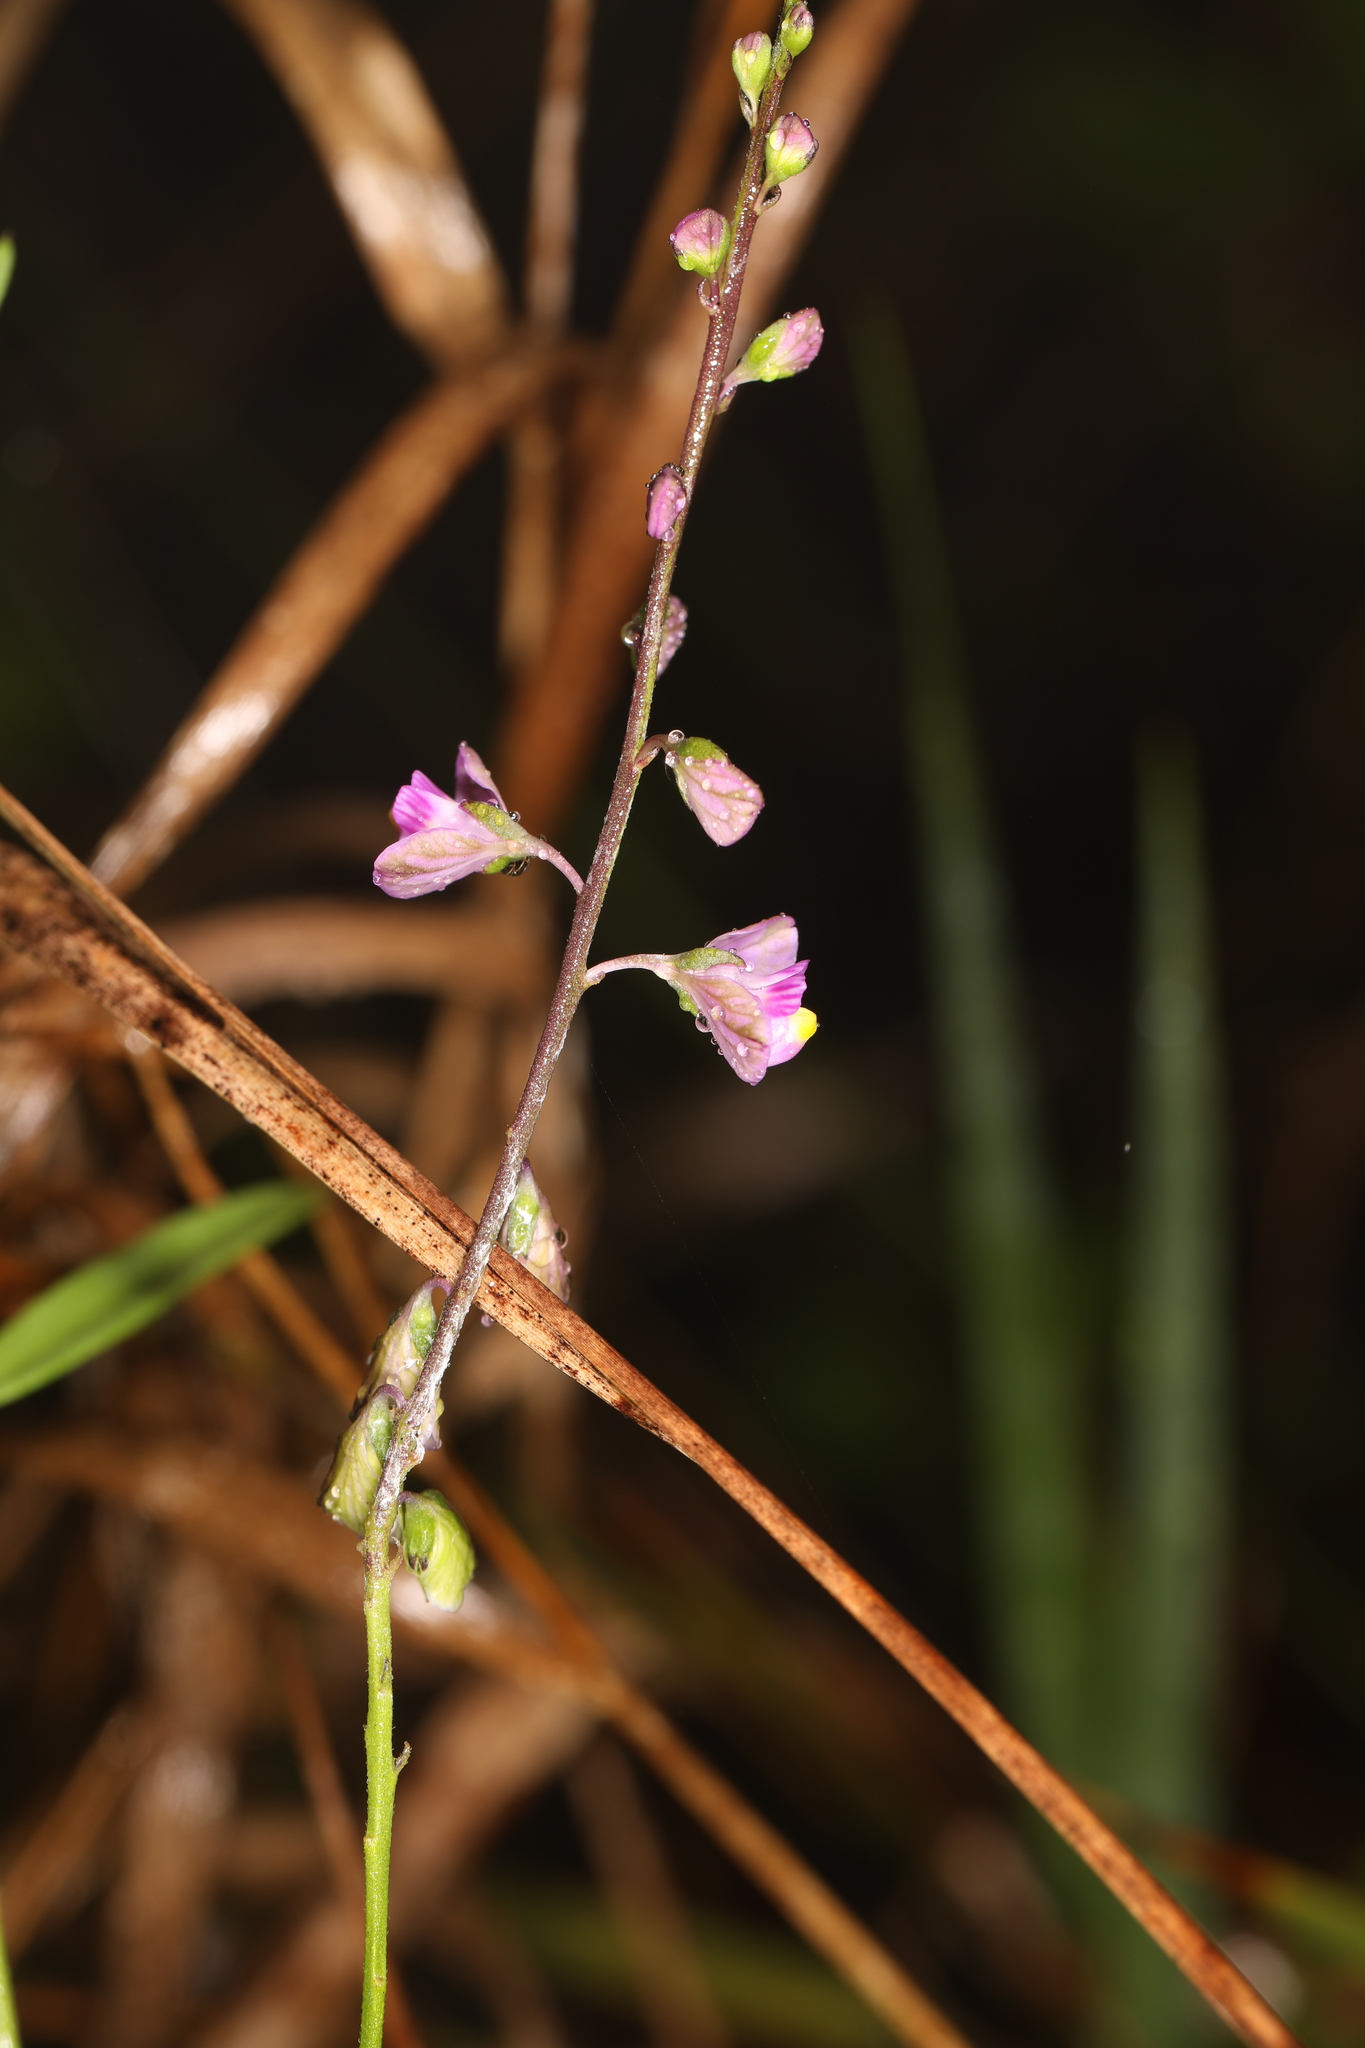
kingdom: Plantae
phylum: Tracheophyta
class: Magnoliopsida
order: Fabales
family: Polygalaceae
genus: Asemeia
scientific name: Asemeia grandiflora
